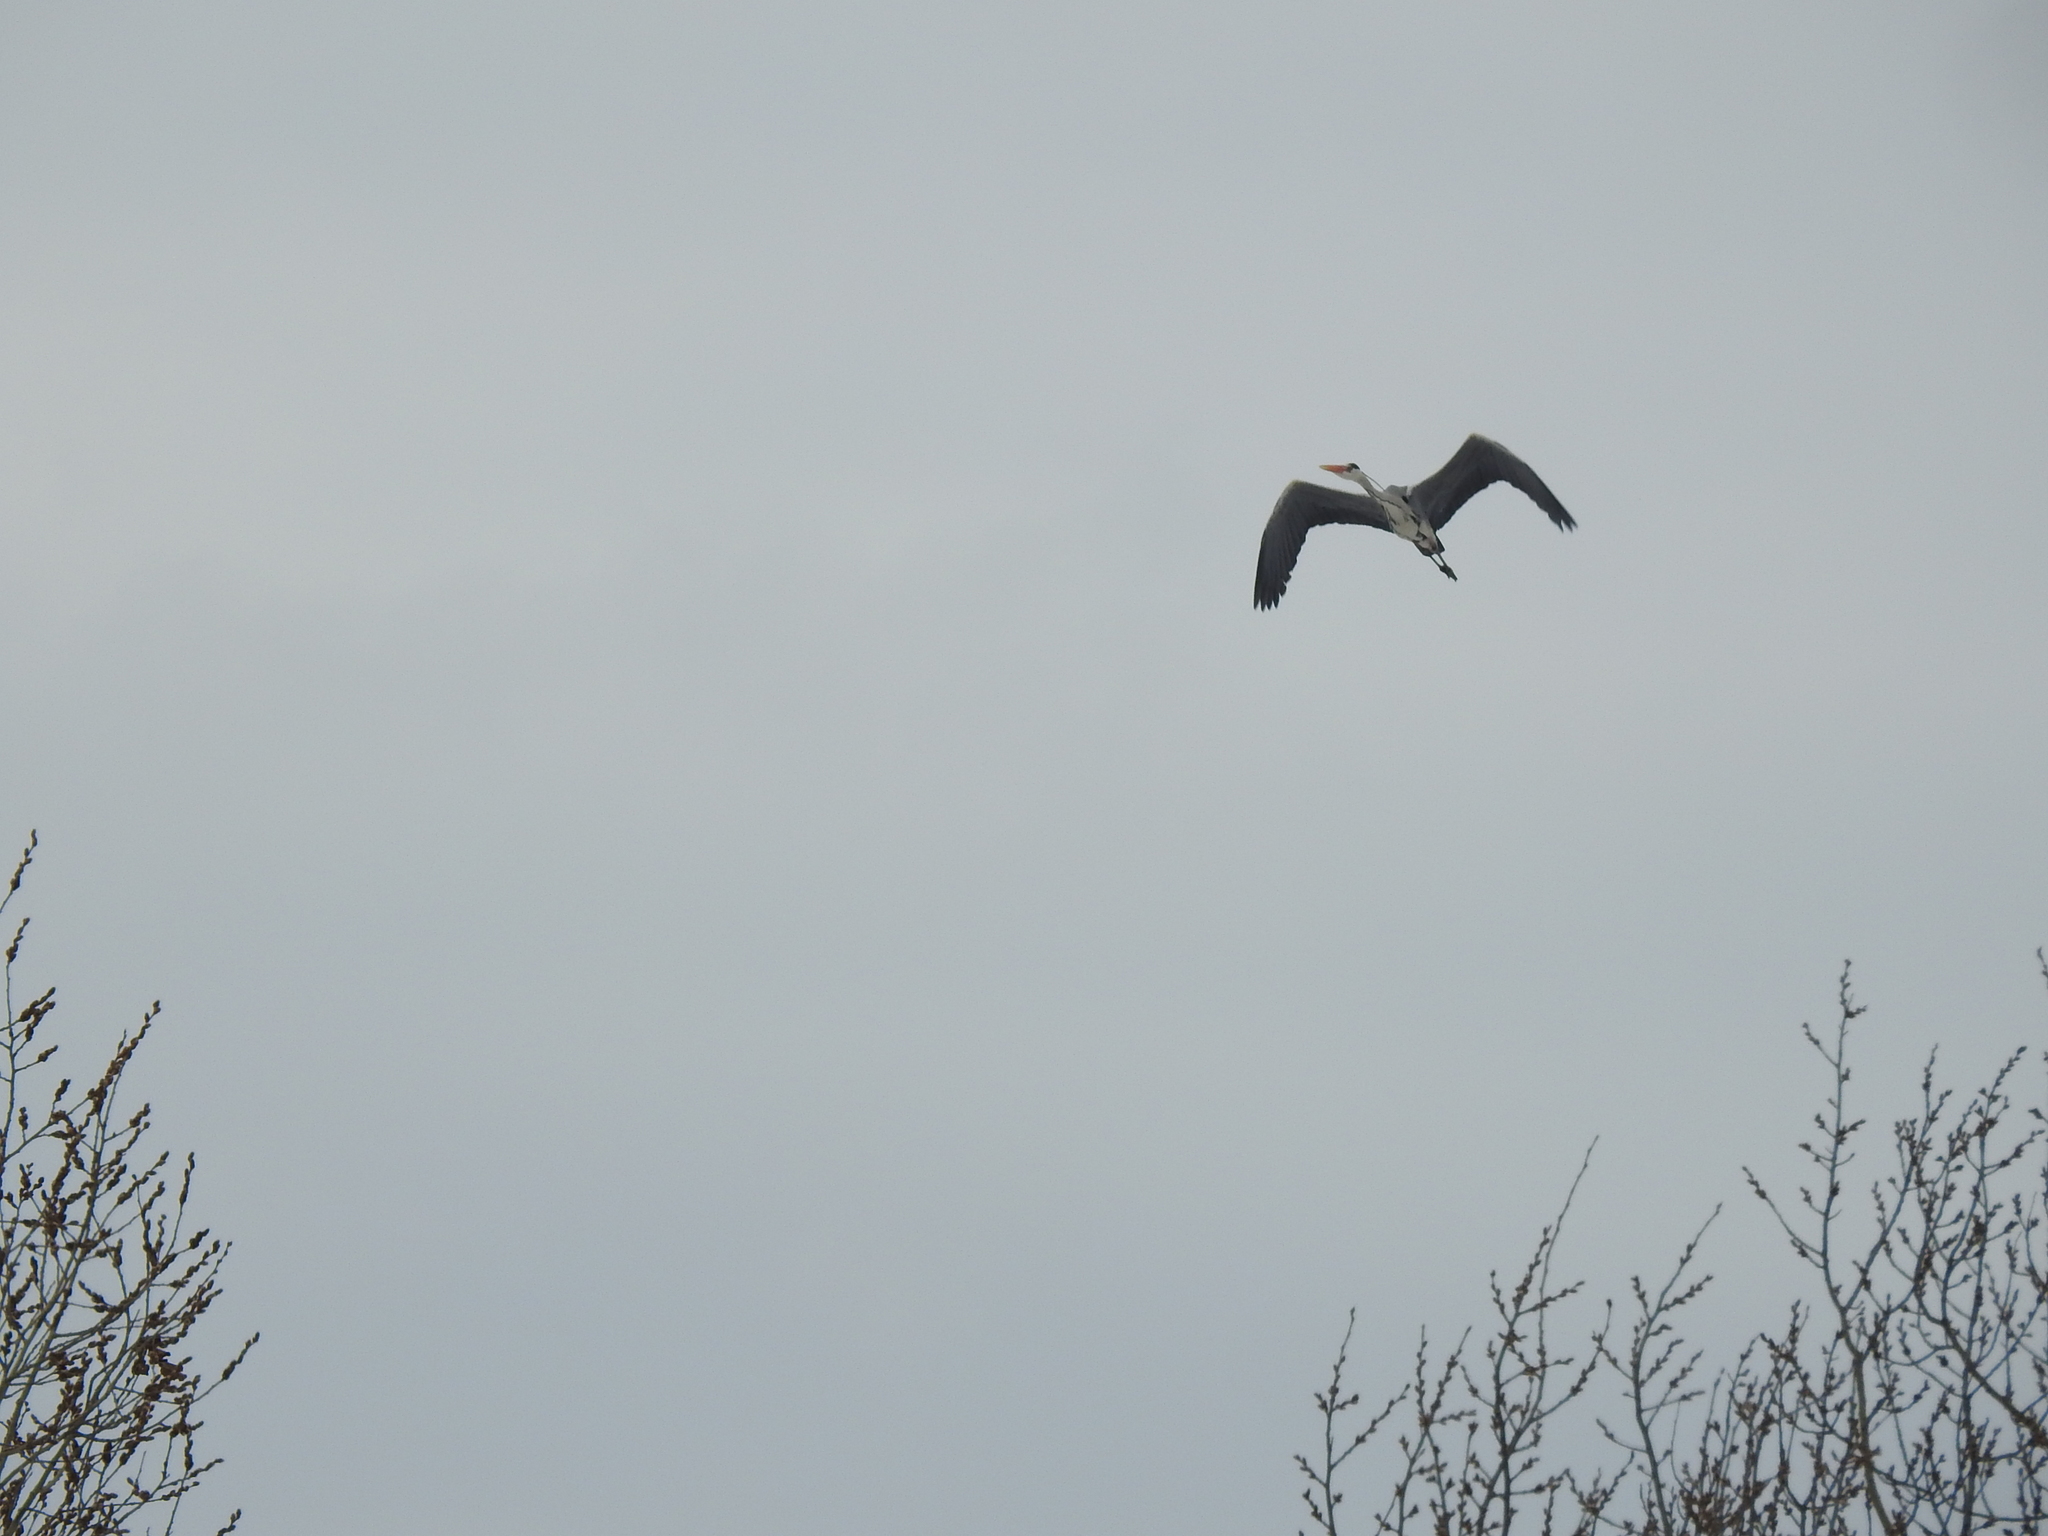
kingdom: Animalia
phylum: Chordata
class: Aves
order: Pelecaniformes
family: Ardeidae
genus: Ardea
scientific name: Ardea cinerea
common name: Grey heron
